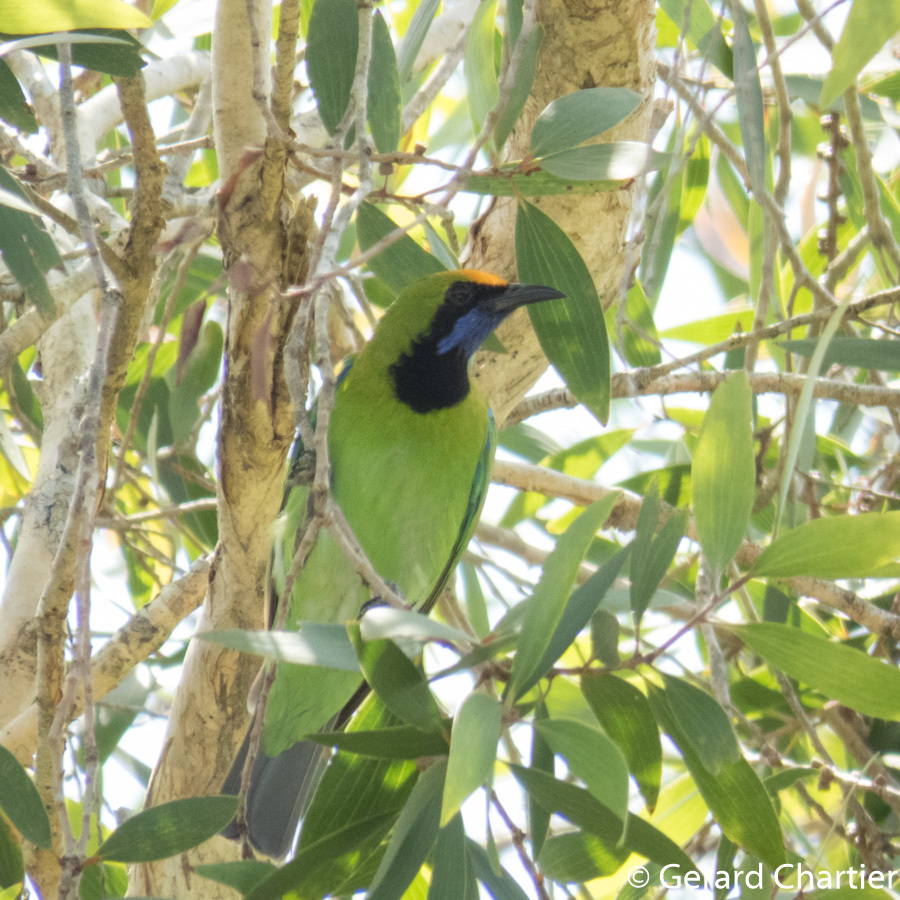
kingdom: Animalia
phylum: Chordata
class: Aves
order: Passeriformes
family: Chloropseidae
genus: Chloropsis
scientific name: Chloropsis aurifrons
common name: Golden-fronted leafbird
